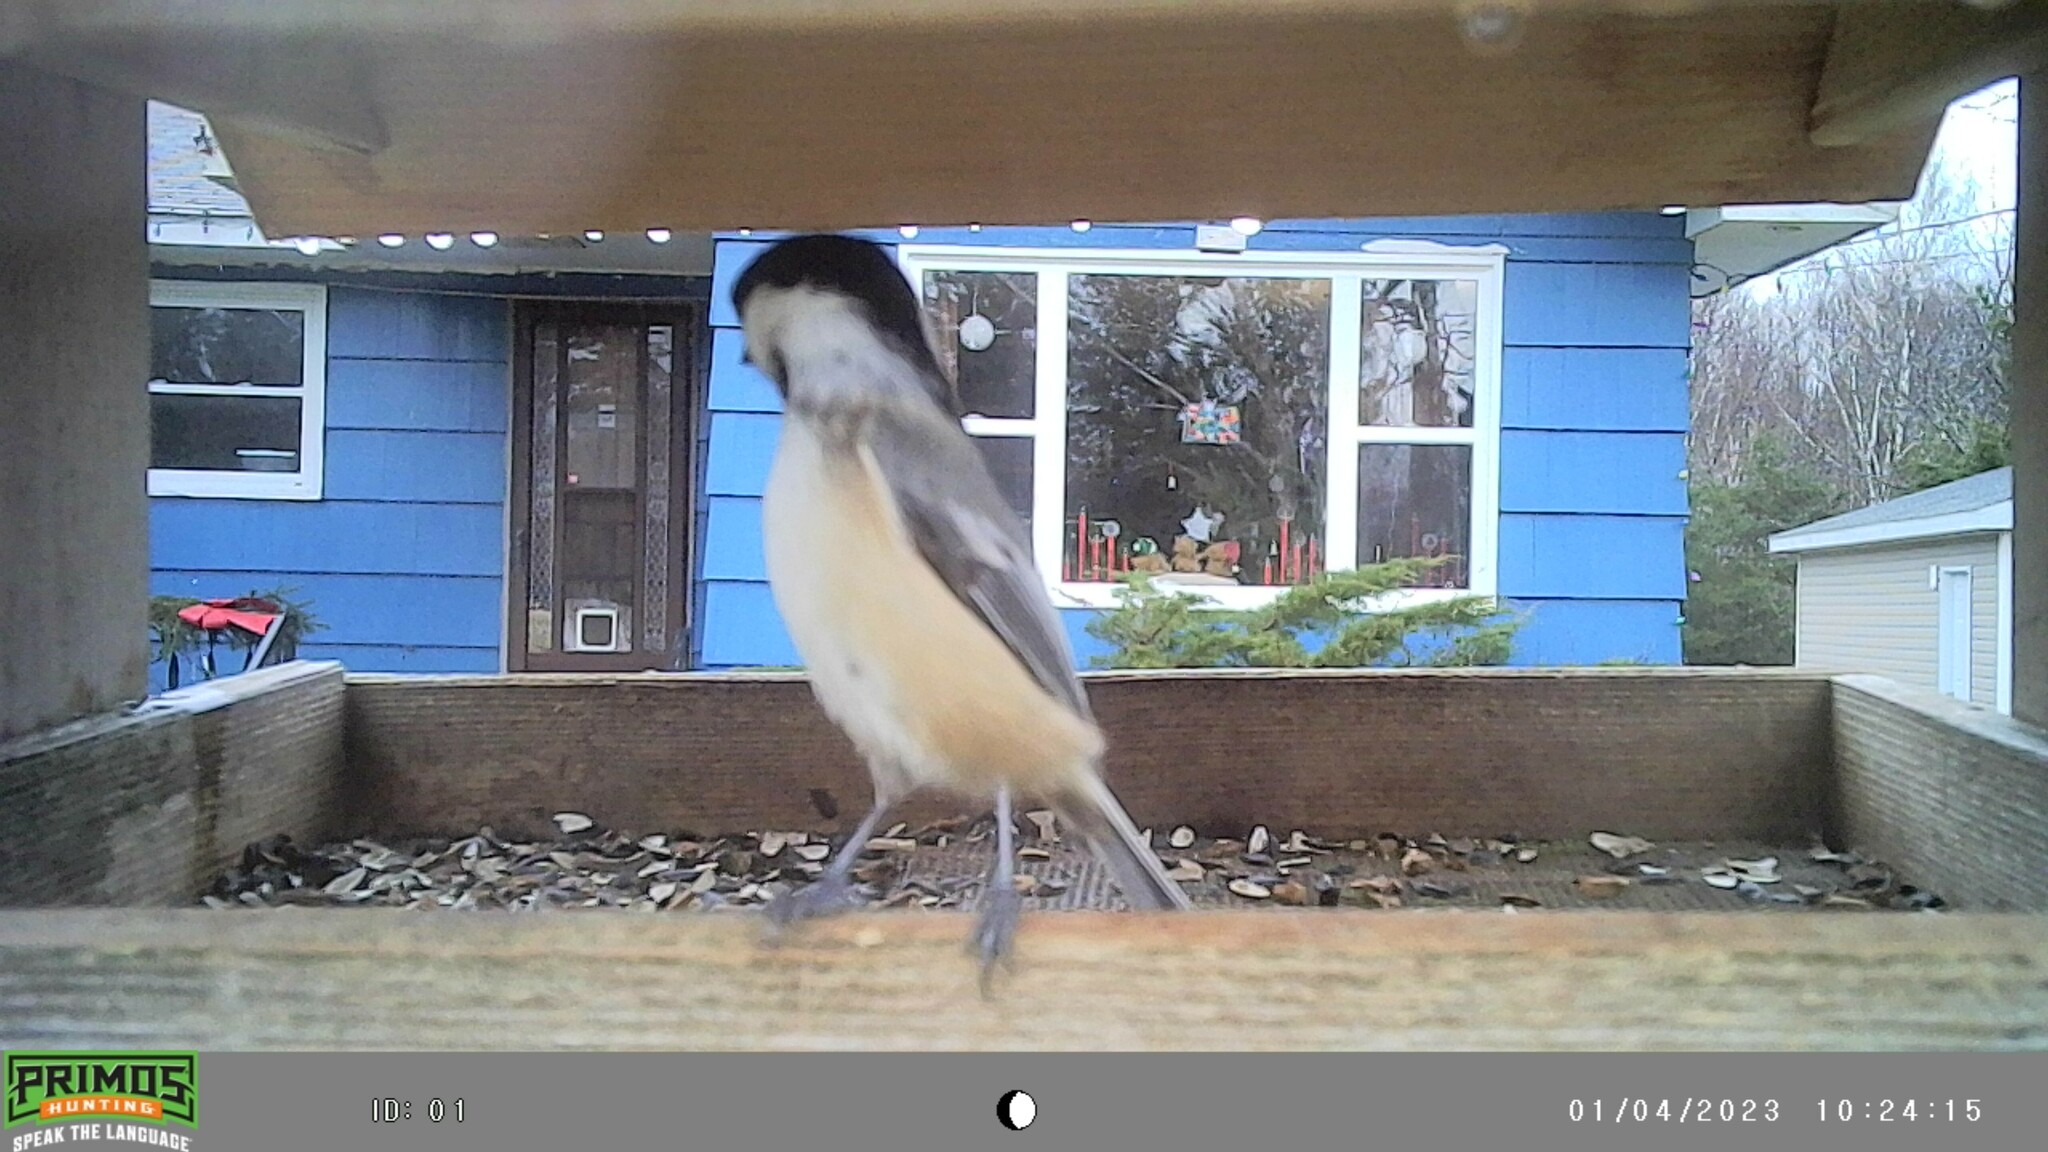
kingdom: Animalia
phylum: Chordata
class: Aves
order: Passeriformes
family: Paridae
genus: Poecile
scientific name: Poecile atricapillus
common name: Black-capped chickadee
